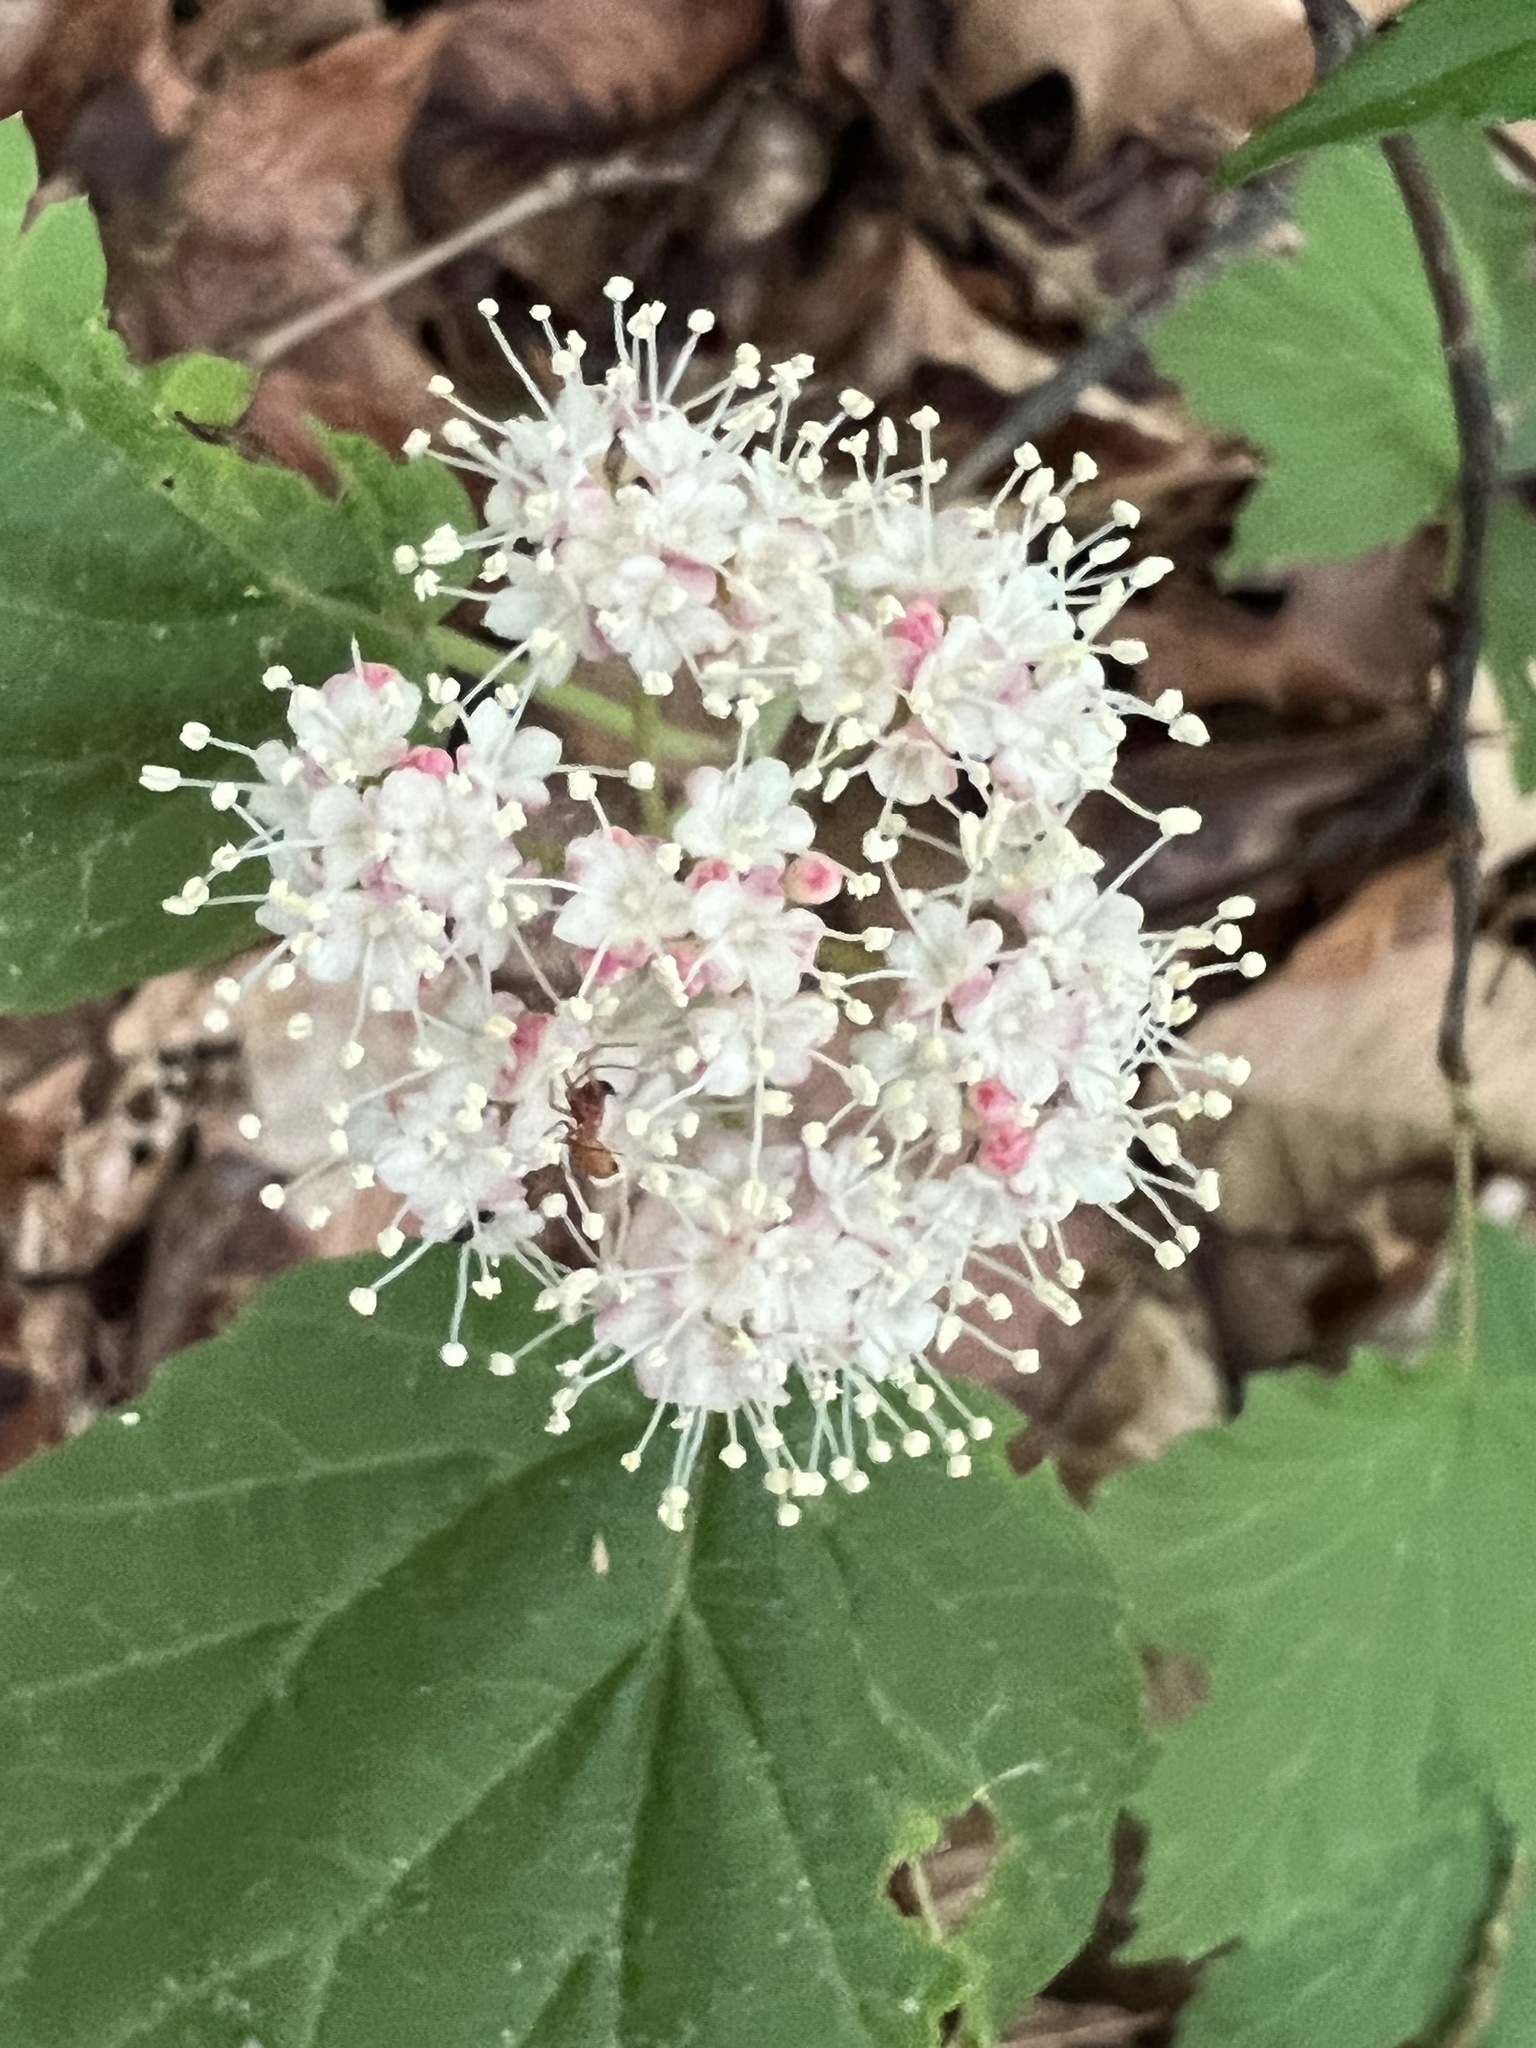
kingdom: Plantae
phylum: Tracheophyta
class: Magnoliopsida
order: Dipsacales
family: Viburnaceae
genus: Viburnum
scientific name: Viburnum acerifolium
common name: Dockmackie
